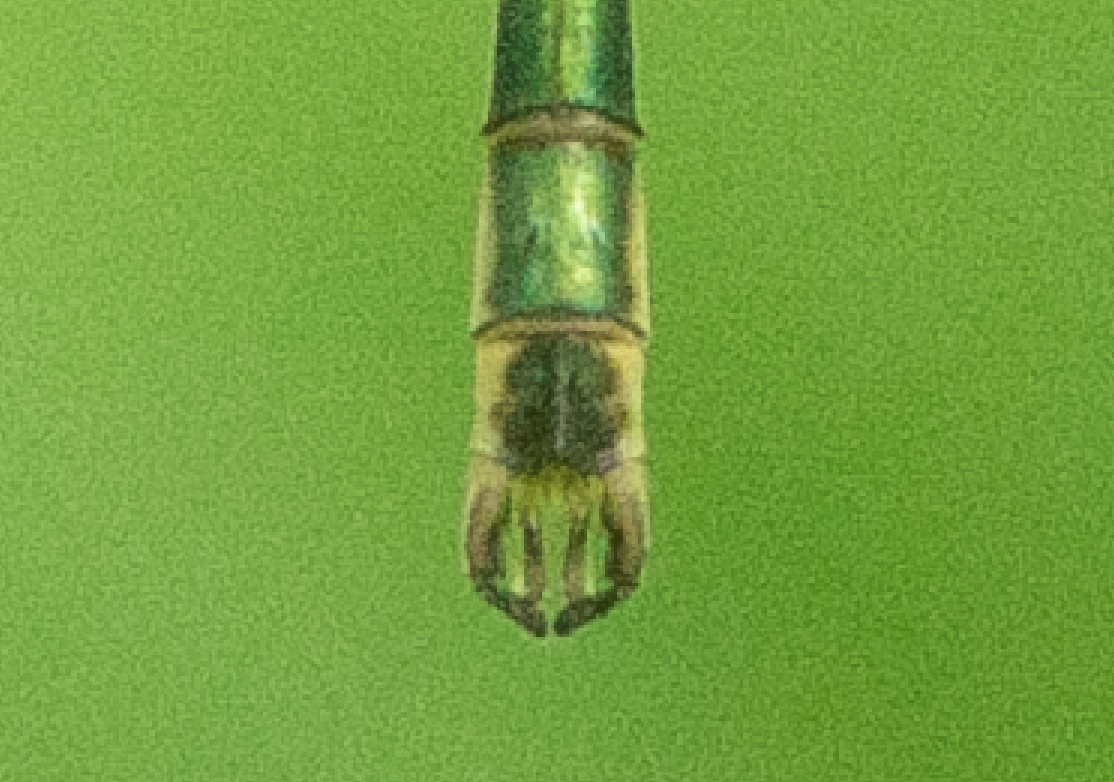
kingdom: Animalia
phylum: Arthropoda
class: Insecta
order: Odonata
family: Lestidae
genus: Lestes
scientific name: Lestes sponsa
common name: Common spreadwing
